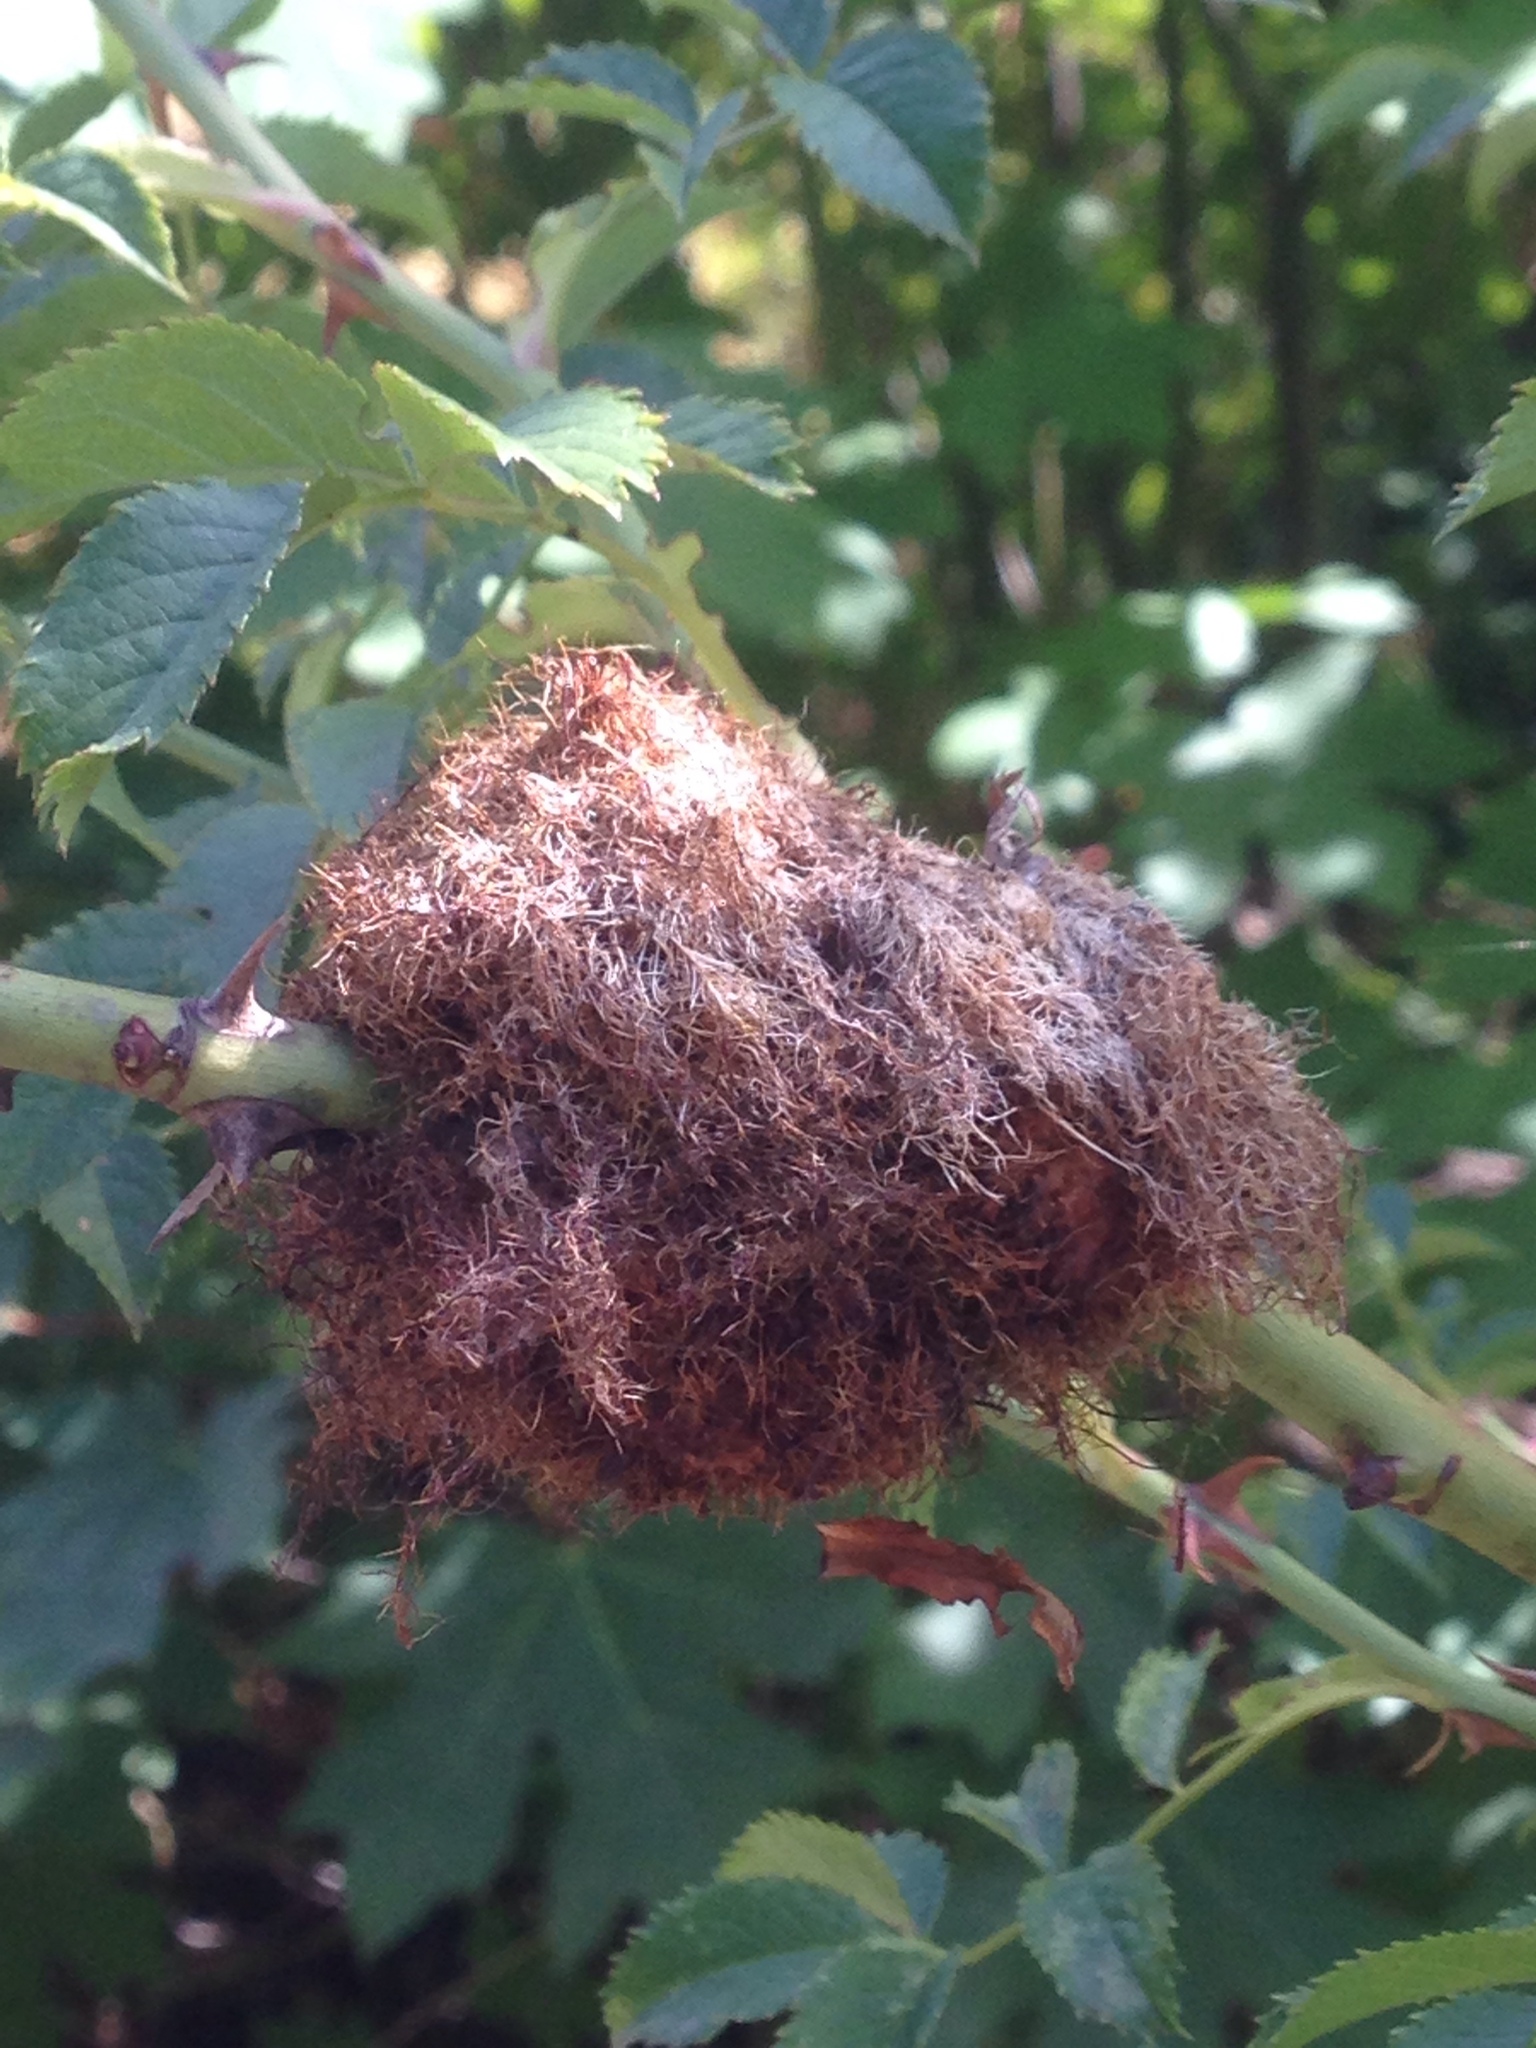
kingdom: Animalia
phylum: Arthropoda
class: Insecta
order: Hymenoptera
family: Cynipidae
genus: Diplolepis
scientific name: Diplolepis rosae
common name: Bedeguar gall
